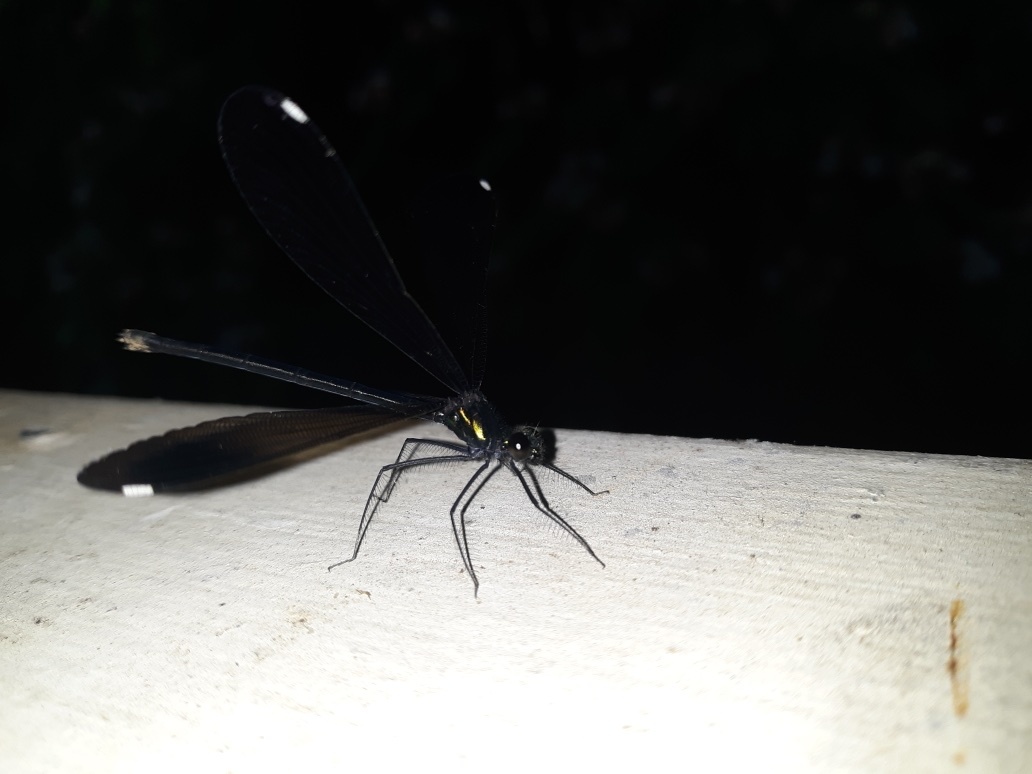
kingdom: Animalia
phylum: Arthropoda
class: Insecta
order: Odonata
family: Calopterygidae
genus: Calopteryx
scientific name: Calopteryx maculata
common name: Ebony jewelwing
